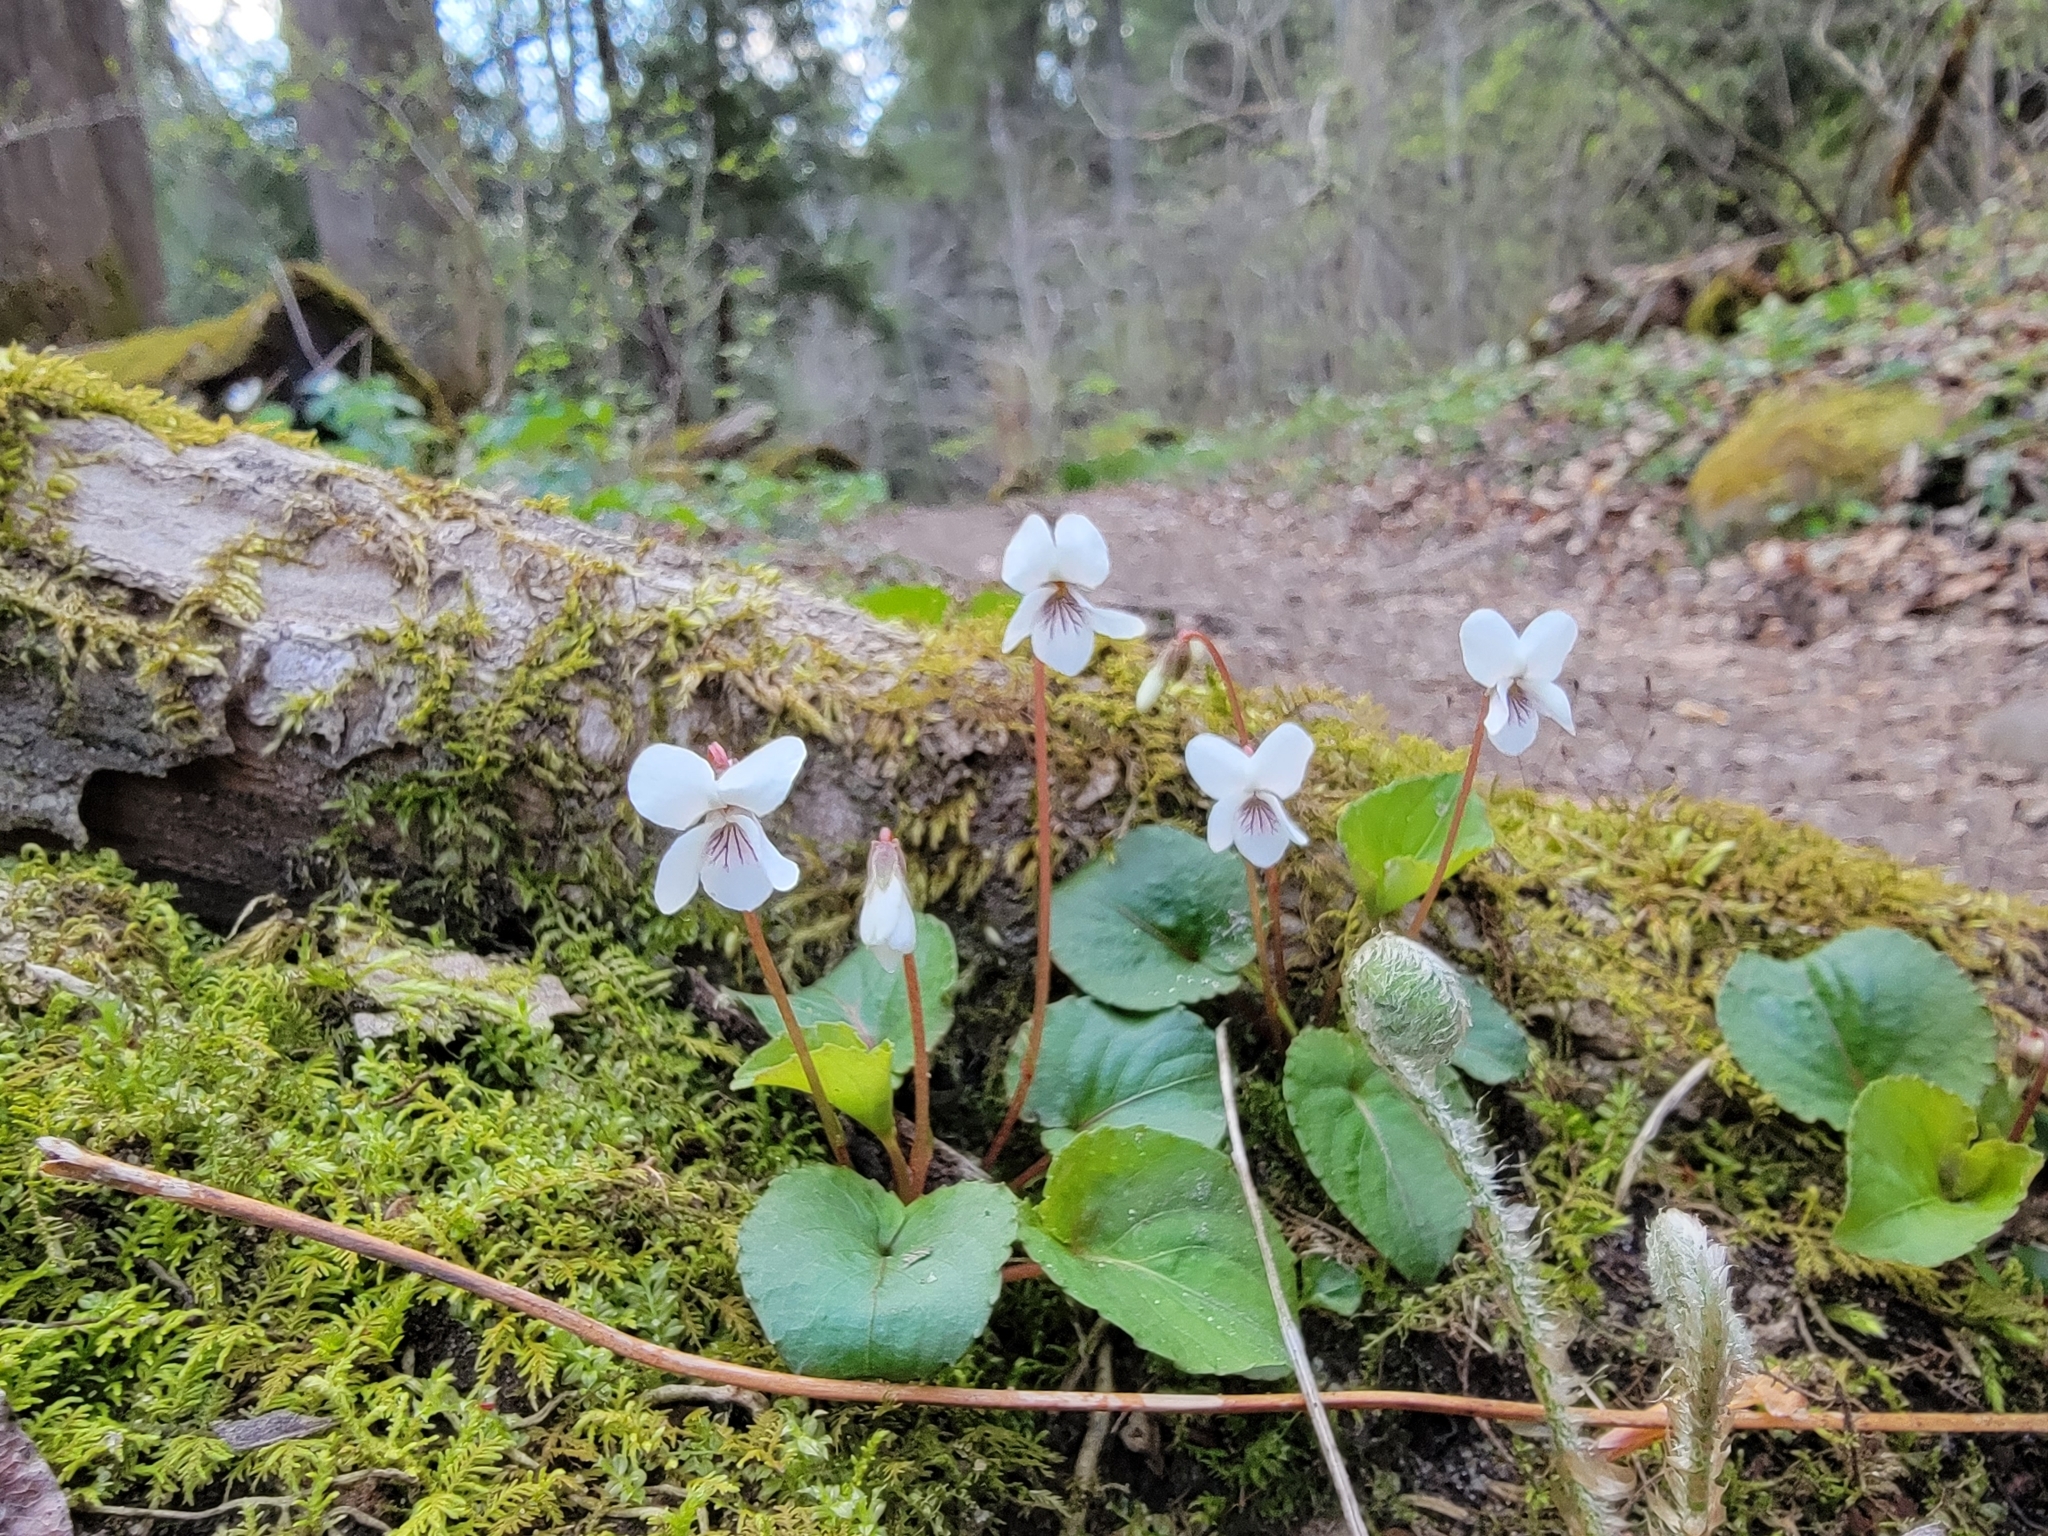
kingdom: Plantae
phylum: Tracheophyta
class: Magnoliopsida
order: Malpighiales
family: Violaceae
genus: Viola
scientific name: Viola blanda
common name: Sweet white violet
